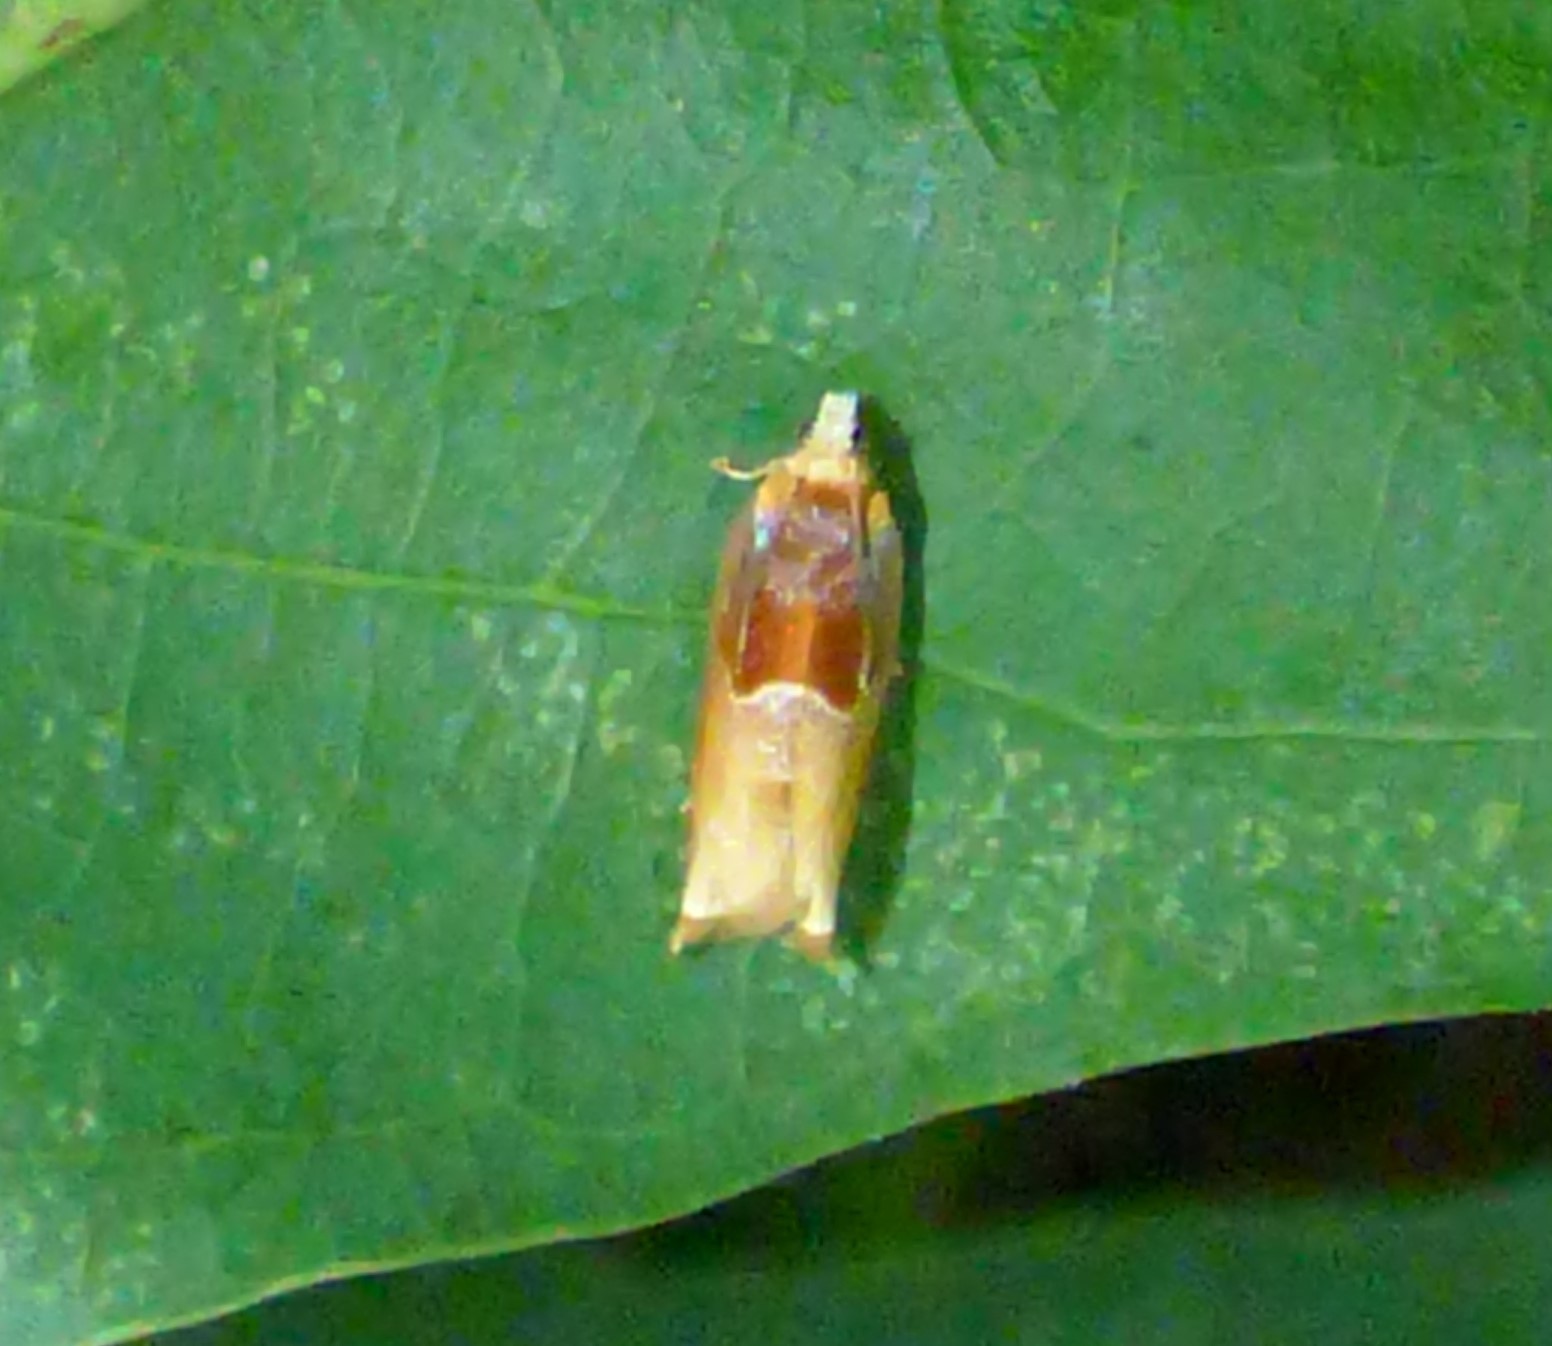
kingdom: Animalia
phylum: Arthropoda
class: Insecta
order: Lepidoptera
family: Tortricidae
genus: Ancylis
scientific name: Ancylis divisana
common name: Two-toned ancylis moth
